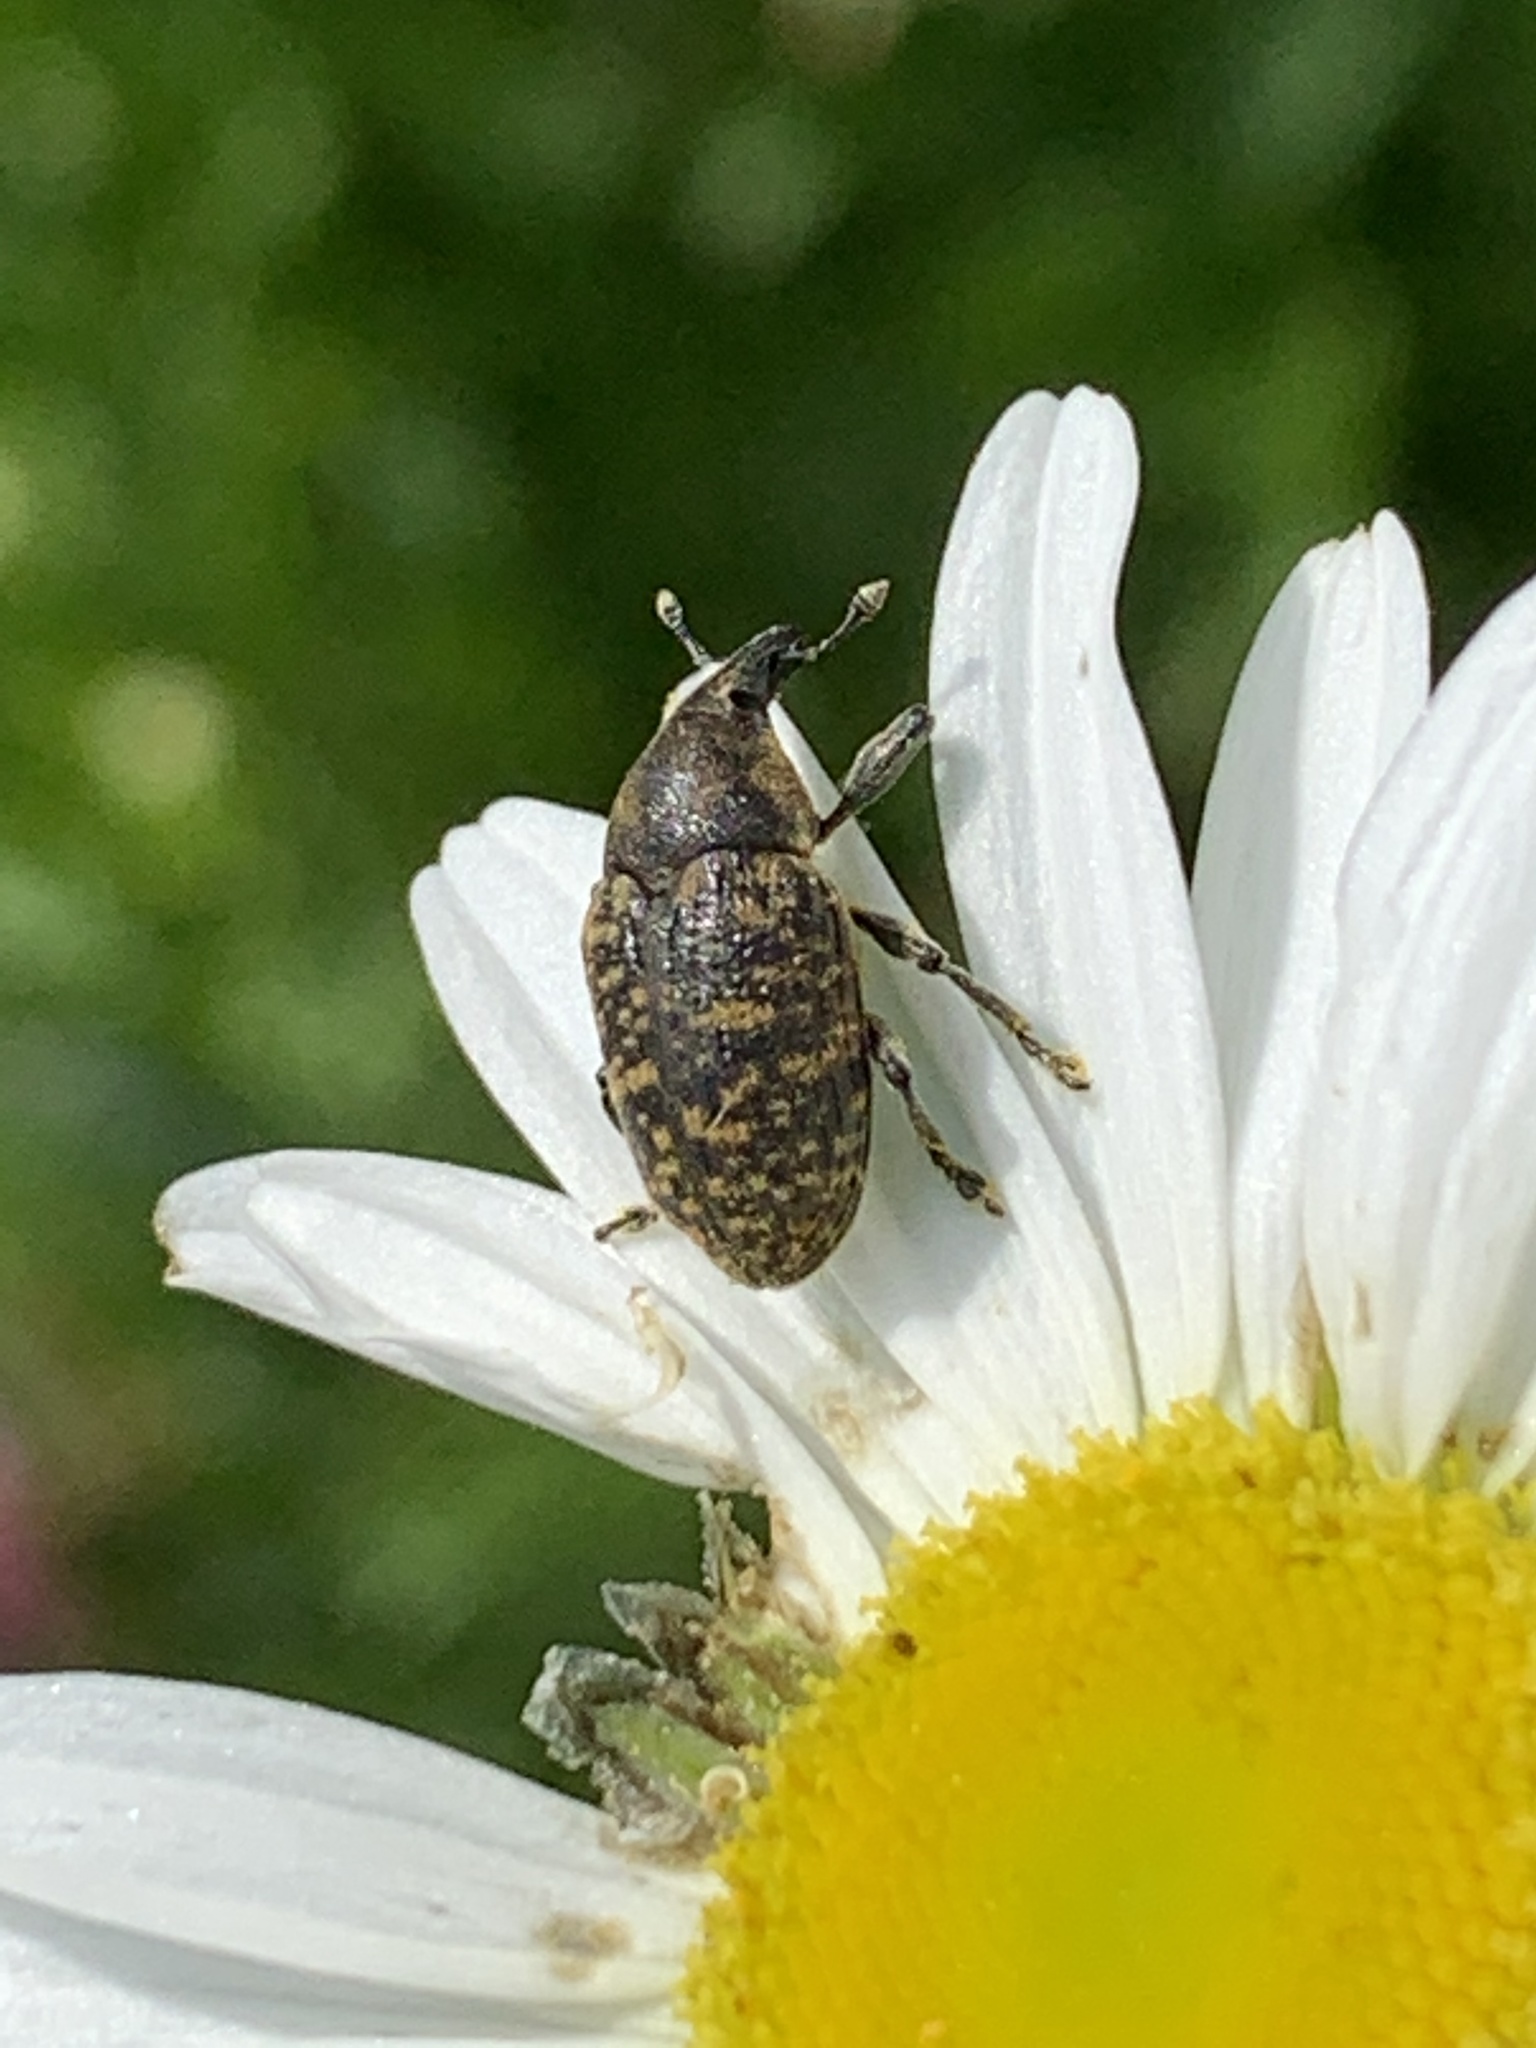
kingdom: Animalia
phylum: Arthropoda
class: Insecta
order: Coleoptera
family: Curculionidae
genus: Larinus
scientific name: Larinus turbinatus
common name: Weevil
